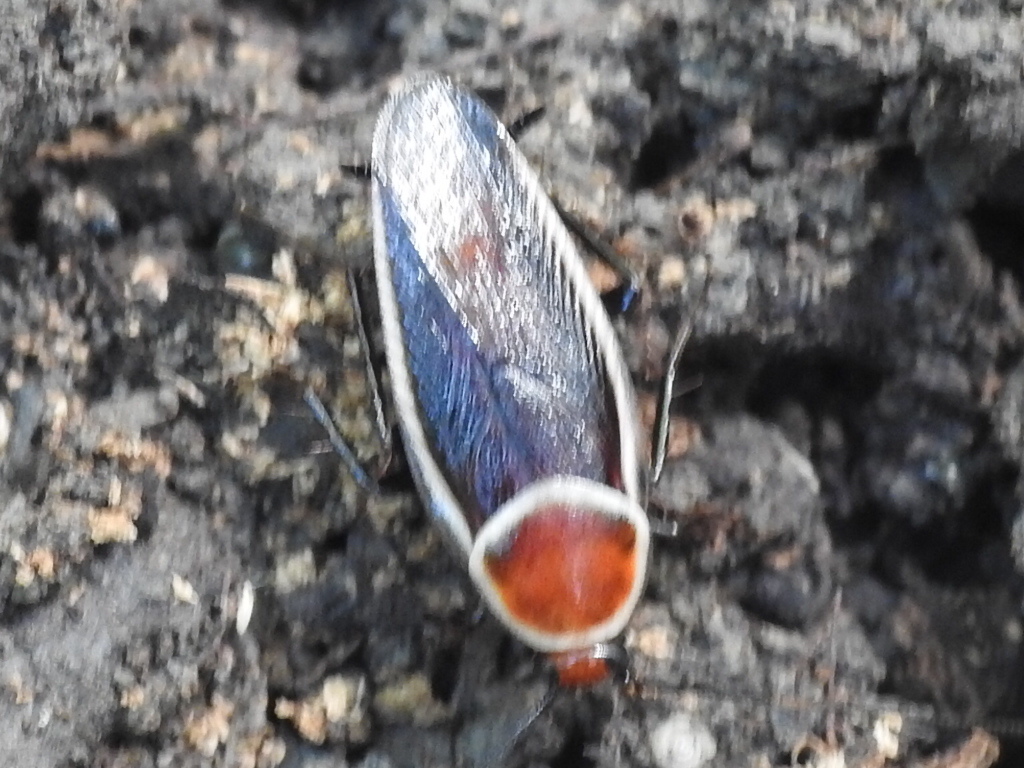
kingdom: Animalia
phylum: Arthropoda
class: Insecta
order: Blattodea
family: Ectobiidae
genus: Pseudomops
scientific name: Pseudomops septentrionalis
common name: Pale-bordered field cockroach
